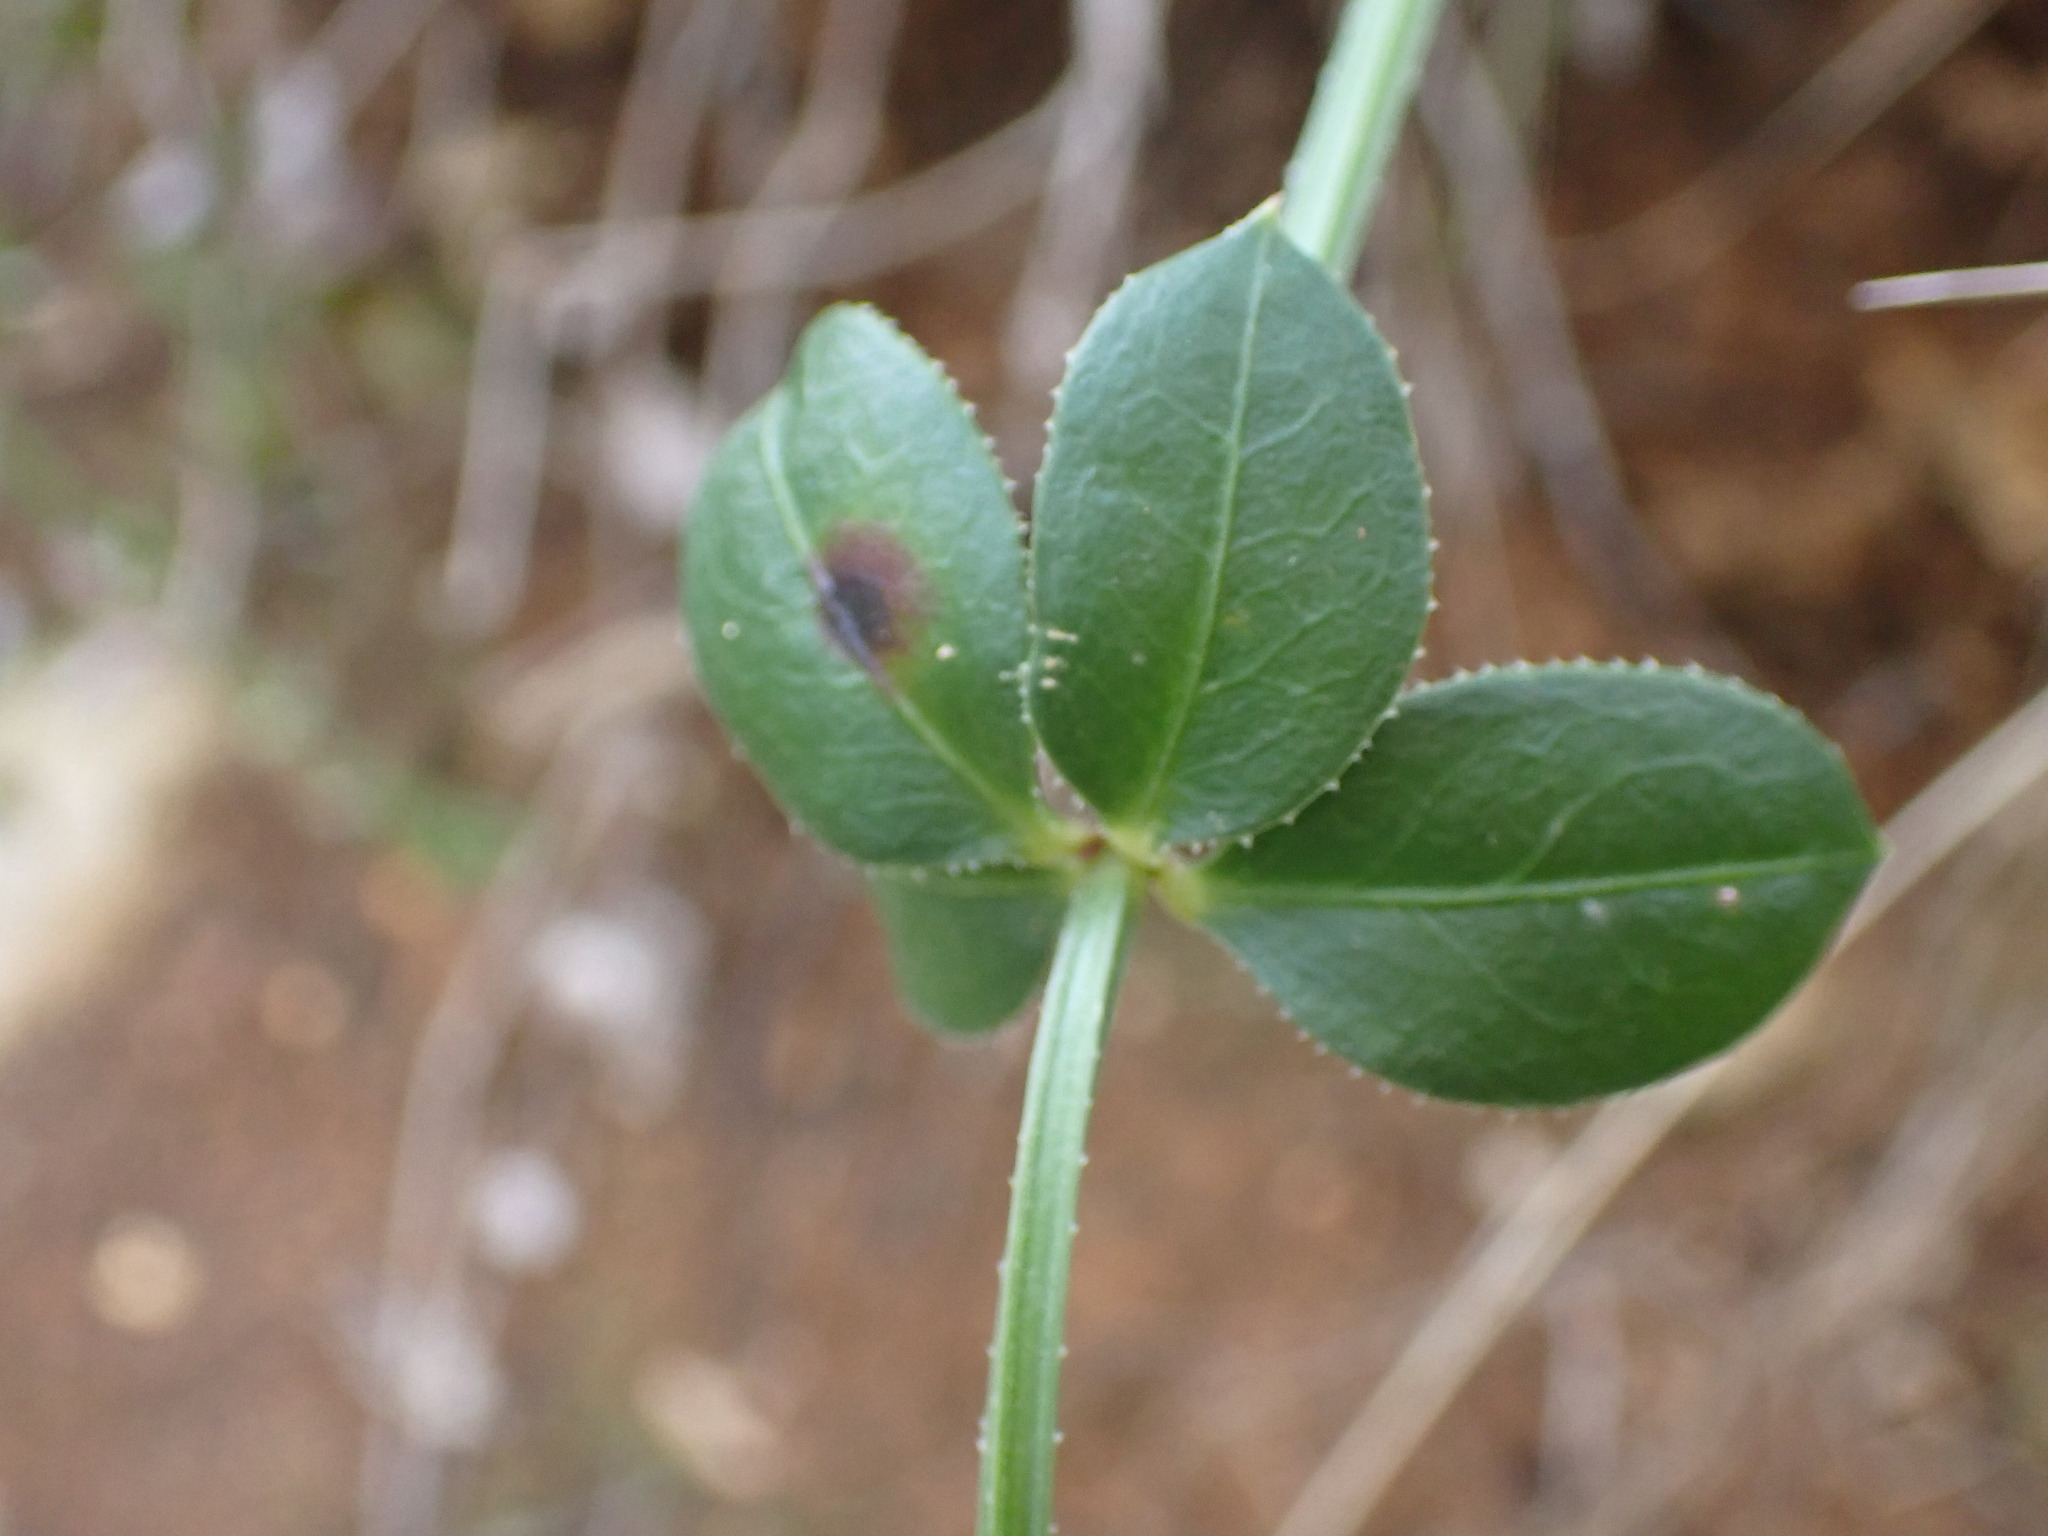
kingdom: Plantae
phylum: Tracheophyta
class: Magnoliopsida
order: Gentianales
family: Rubiaceae
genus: Rubia
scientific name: Rubia peregrina
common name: Wild madder
